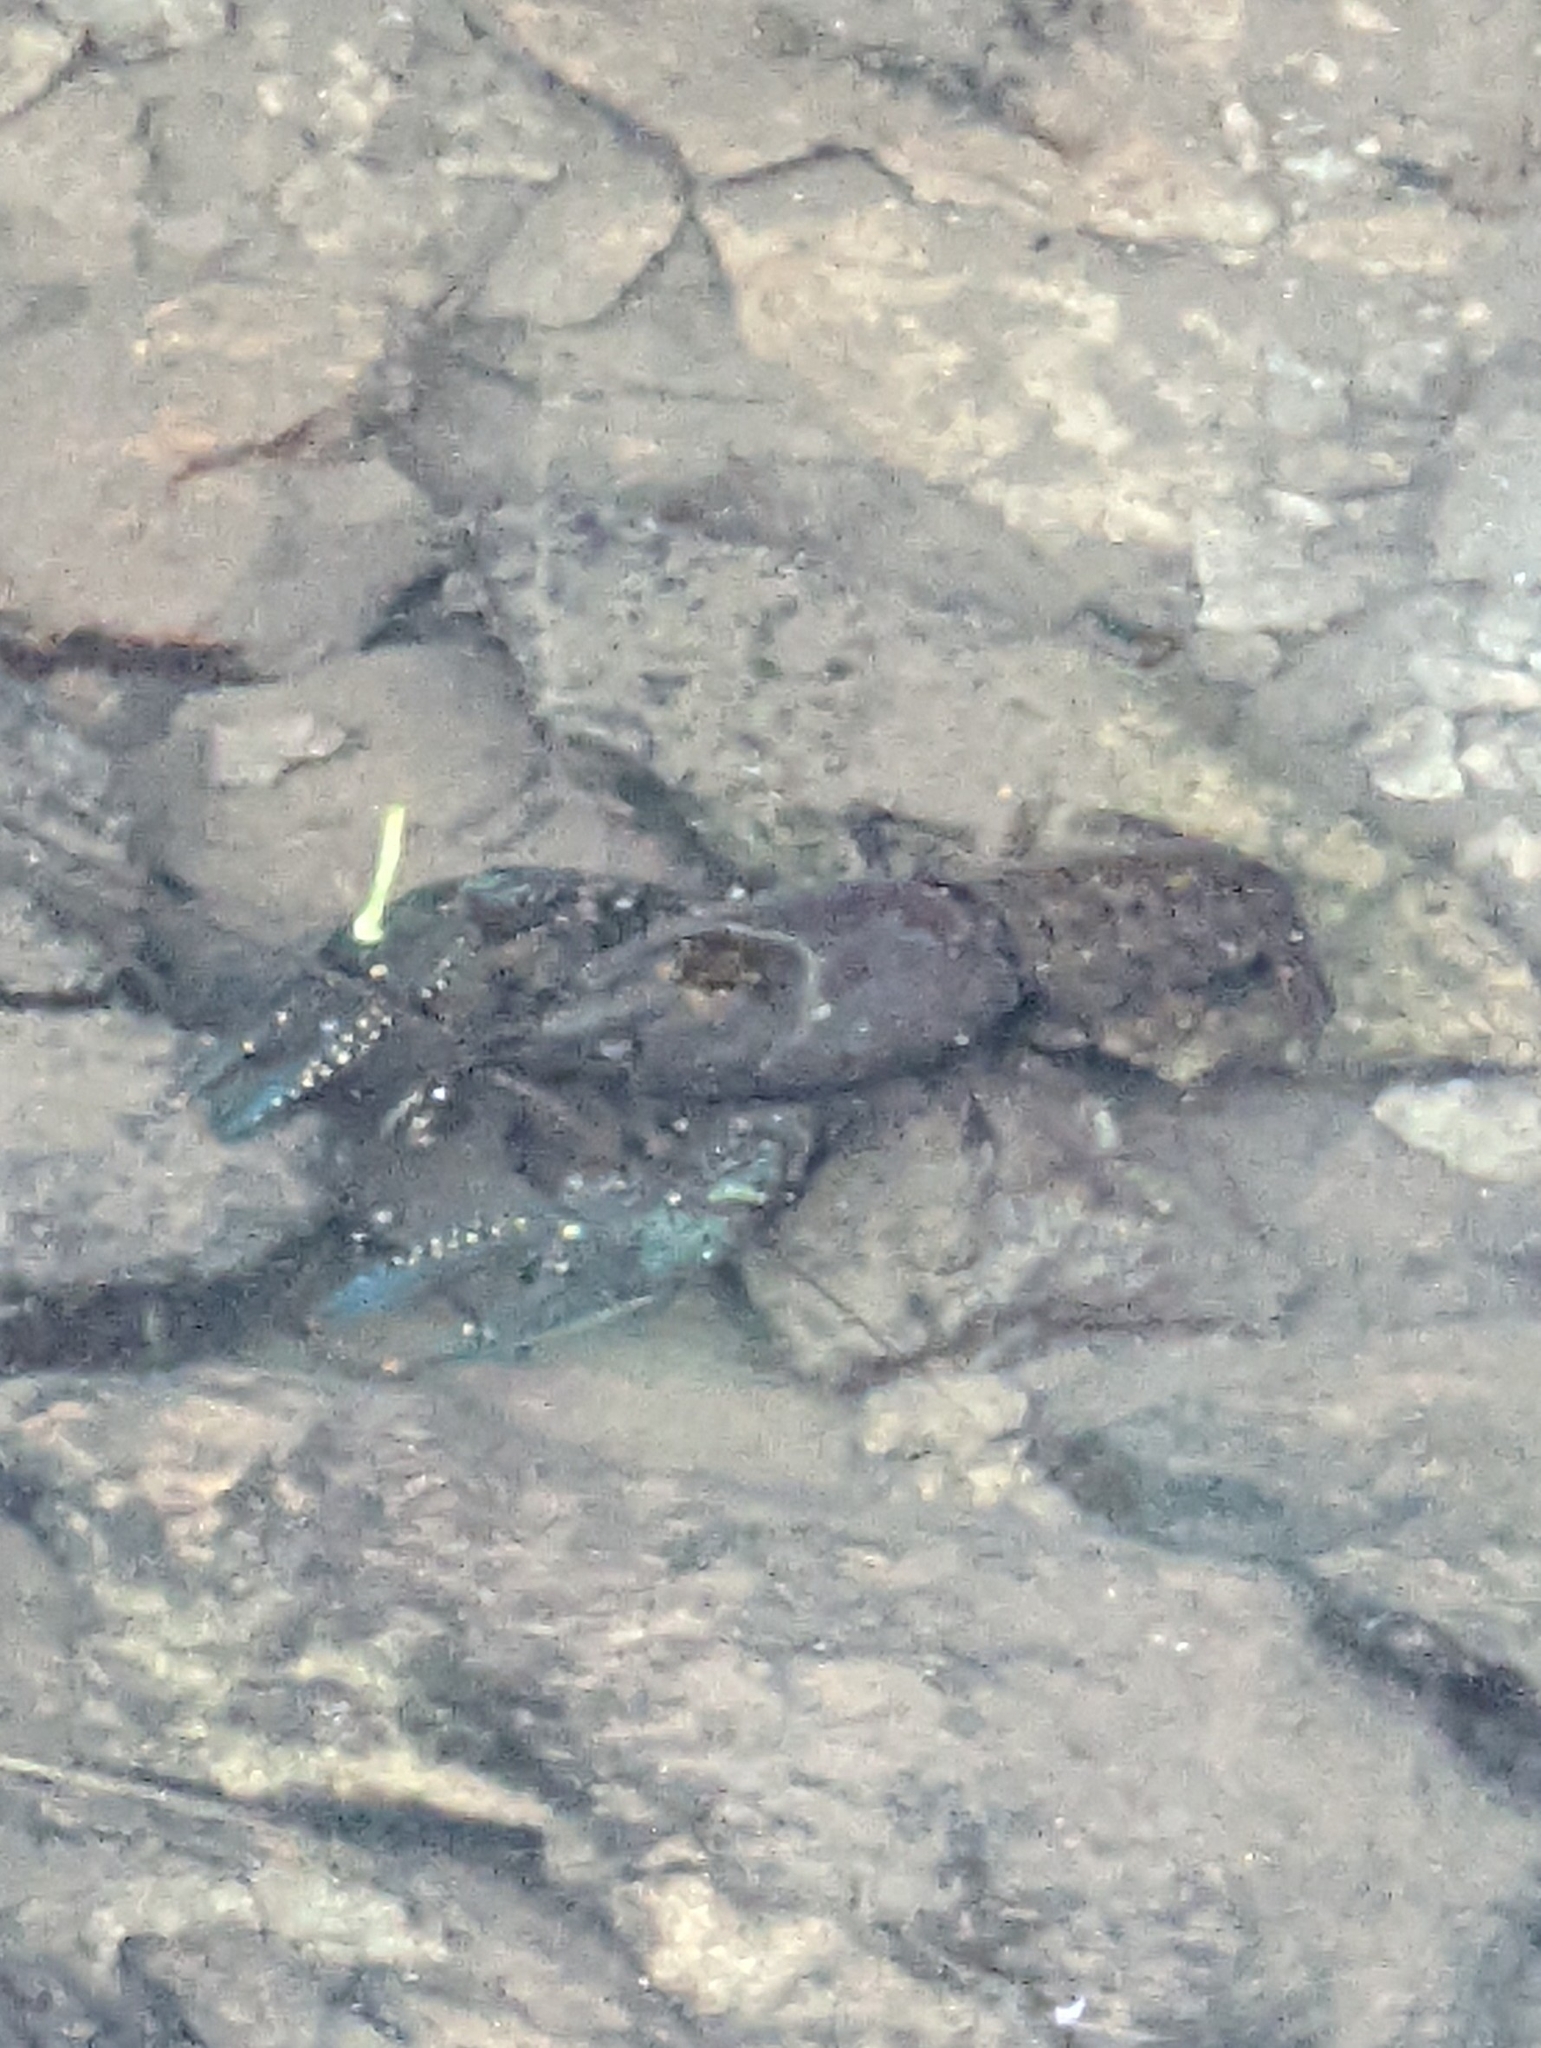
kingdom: Animalia
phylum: Arthropoda
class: Malacostraca
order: Decapoda
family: Cambaridae
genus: Faxonius
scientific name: Faxonius virilis
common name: Virile crayfish
